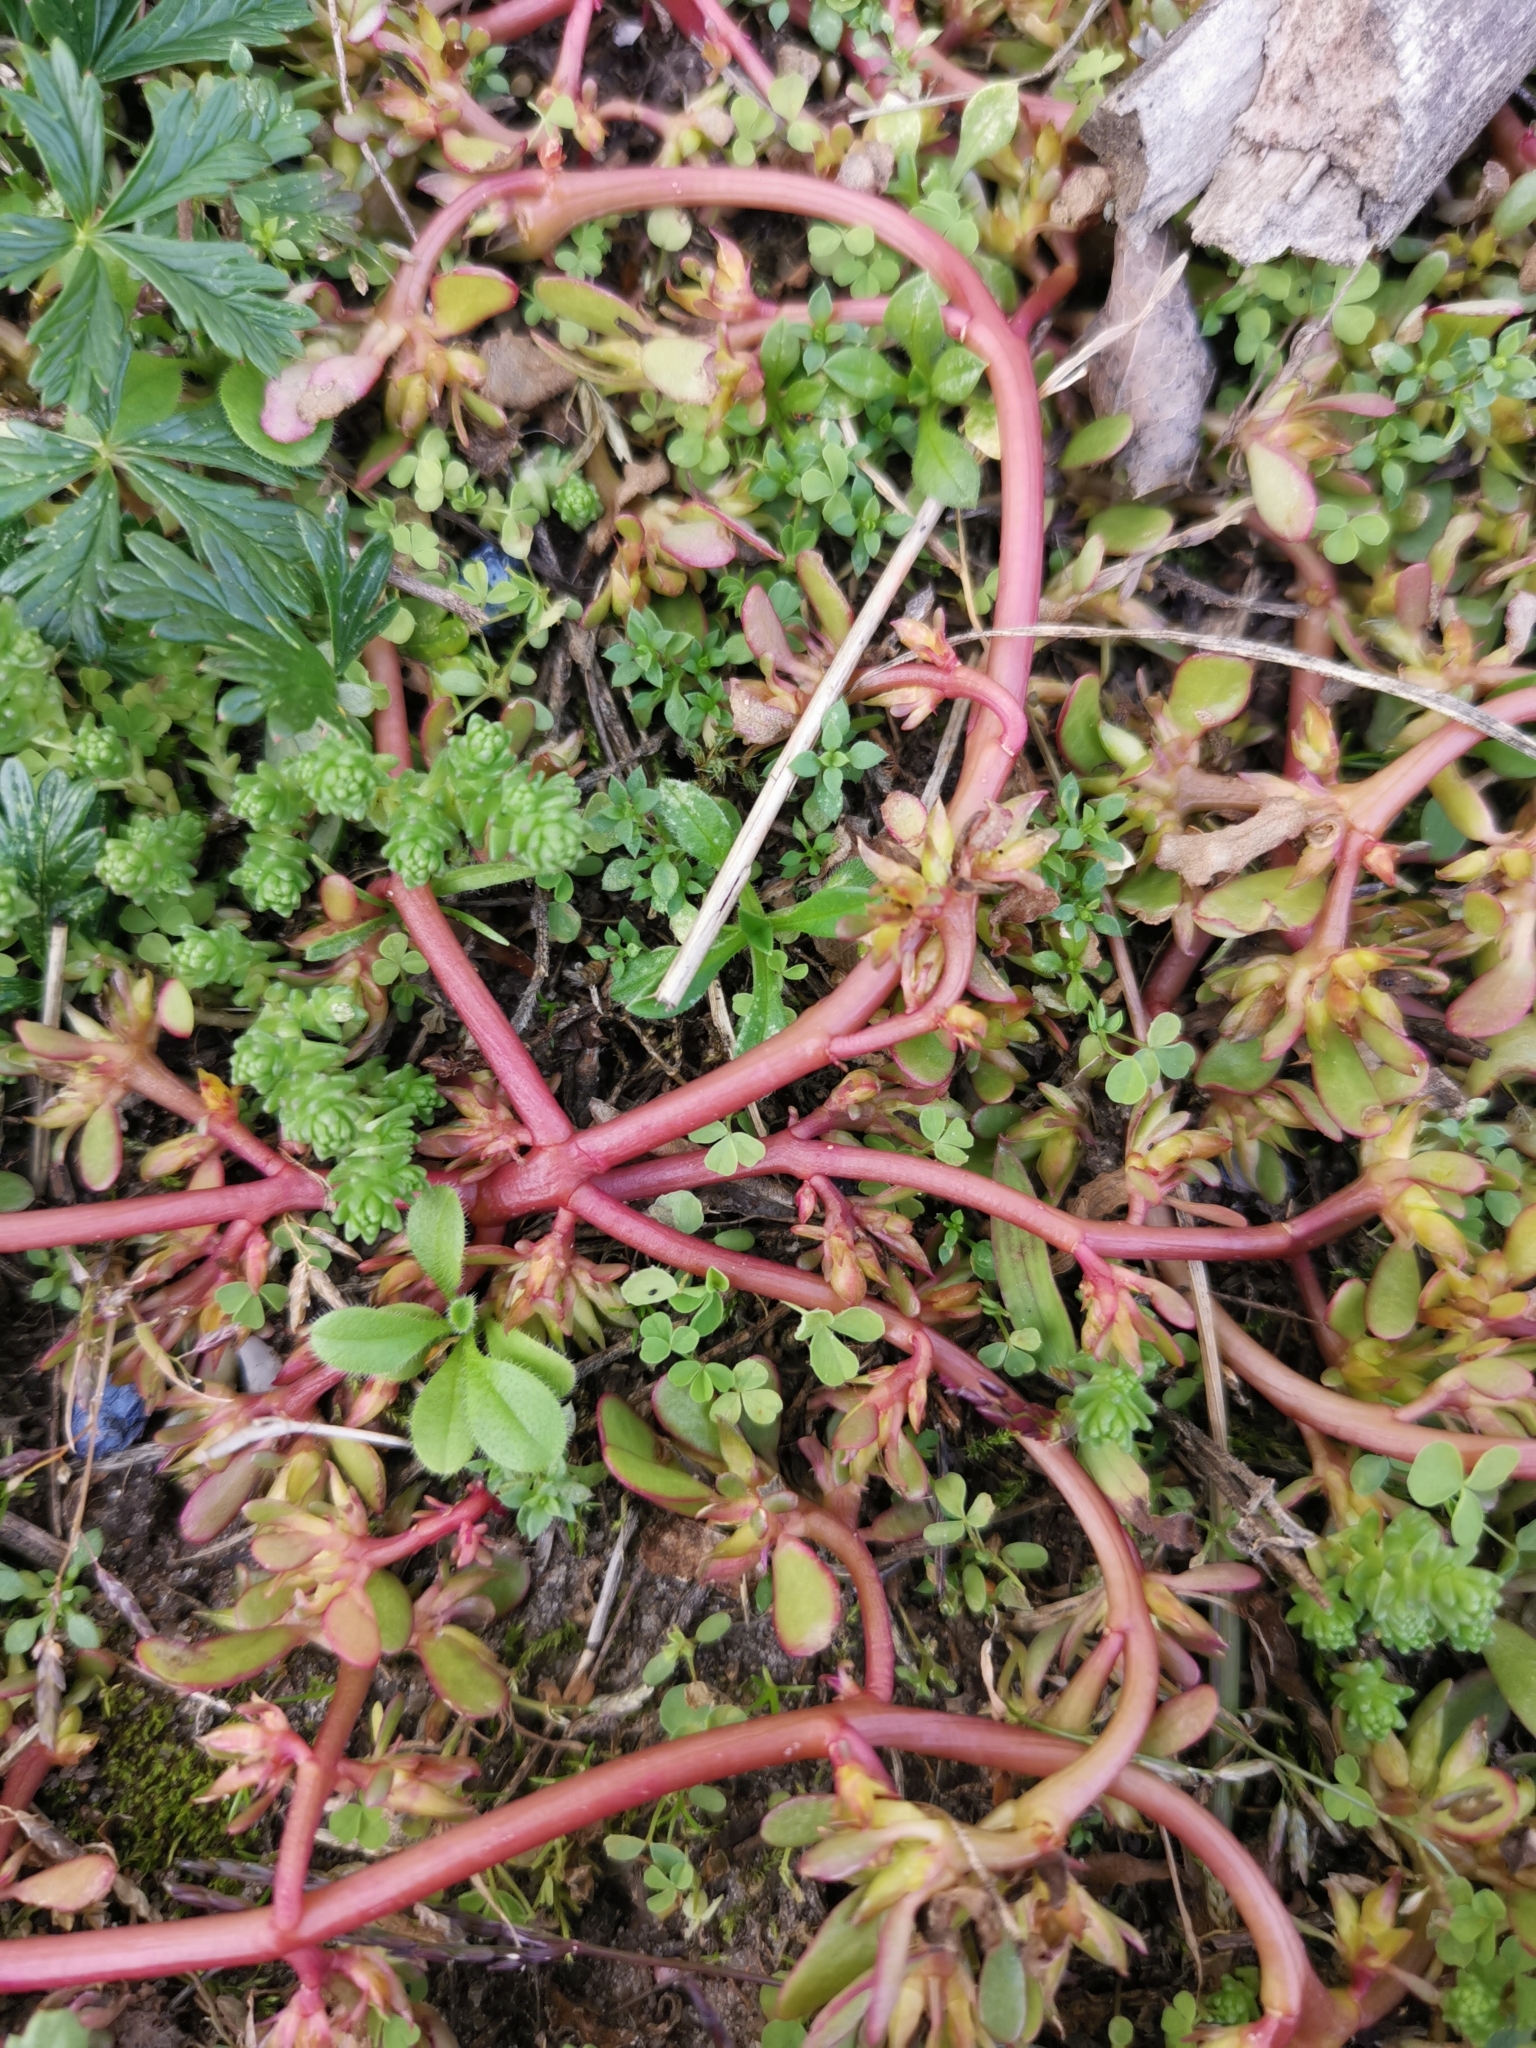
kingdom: Plantae
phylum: Tracheophyta
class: Magnoliopsida
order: Caryophyllales
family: Portulacaceae
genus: Portulaca
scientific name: Portulaca oleracea
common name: Common purslane
